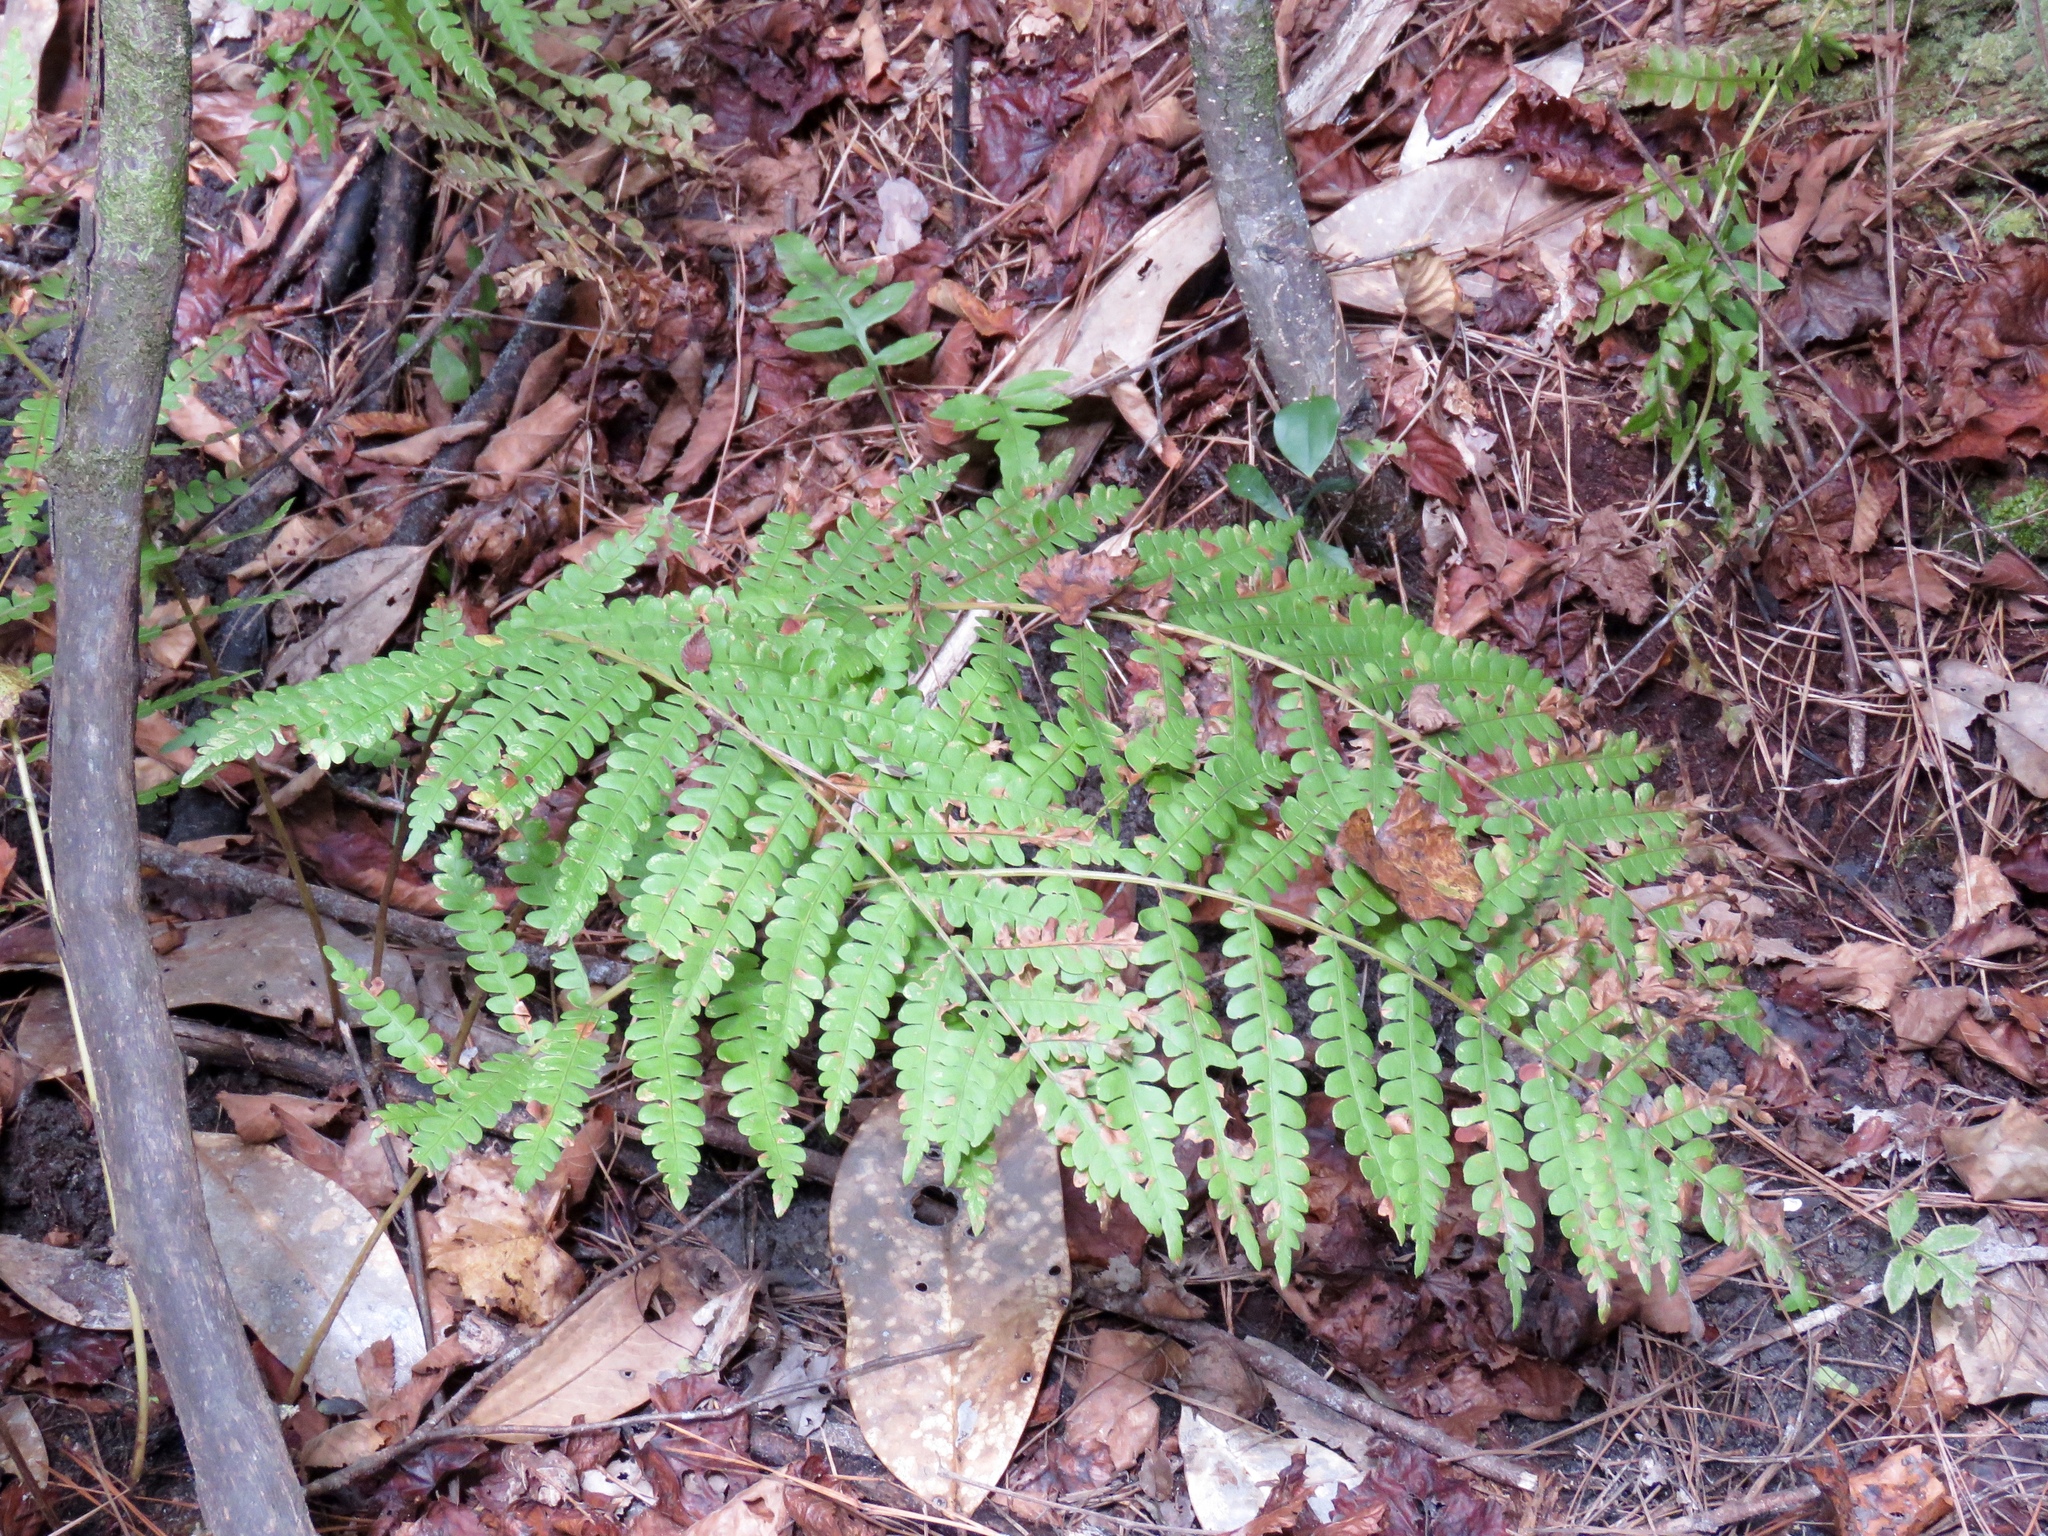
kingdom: Plantae
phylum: Tracheophyta
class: Polypodiopsida
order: Osmundales
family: Osmundaceae
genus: Osmundastrum
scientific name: Osmundastrum cinnamomeum
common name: Cinnamon fern
